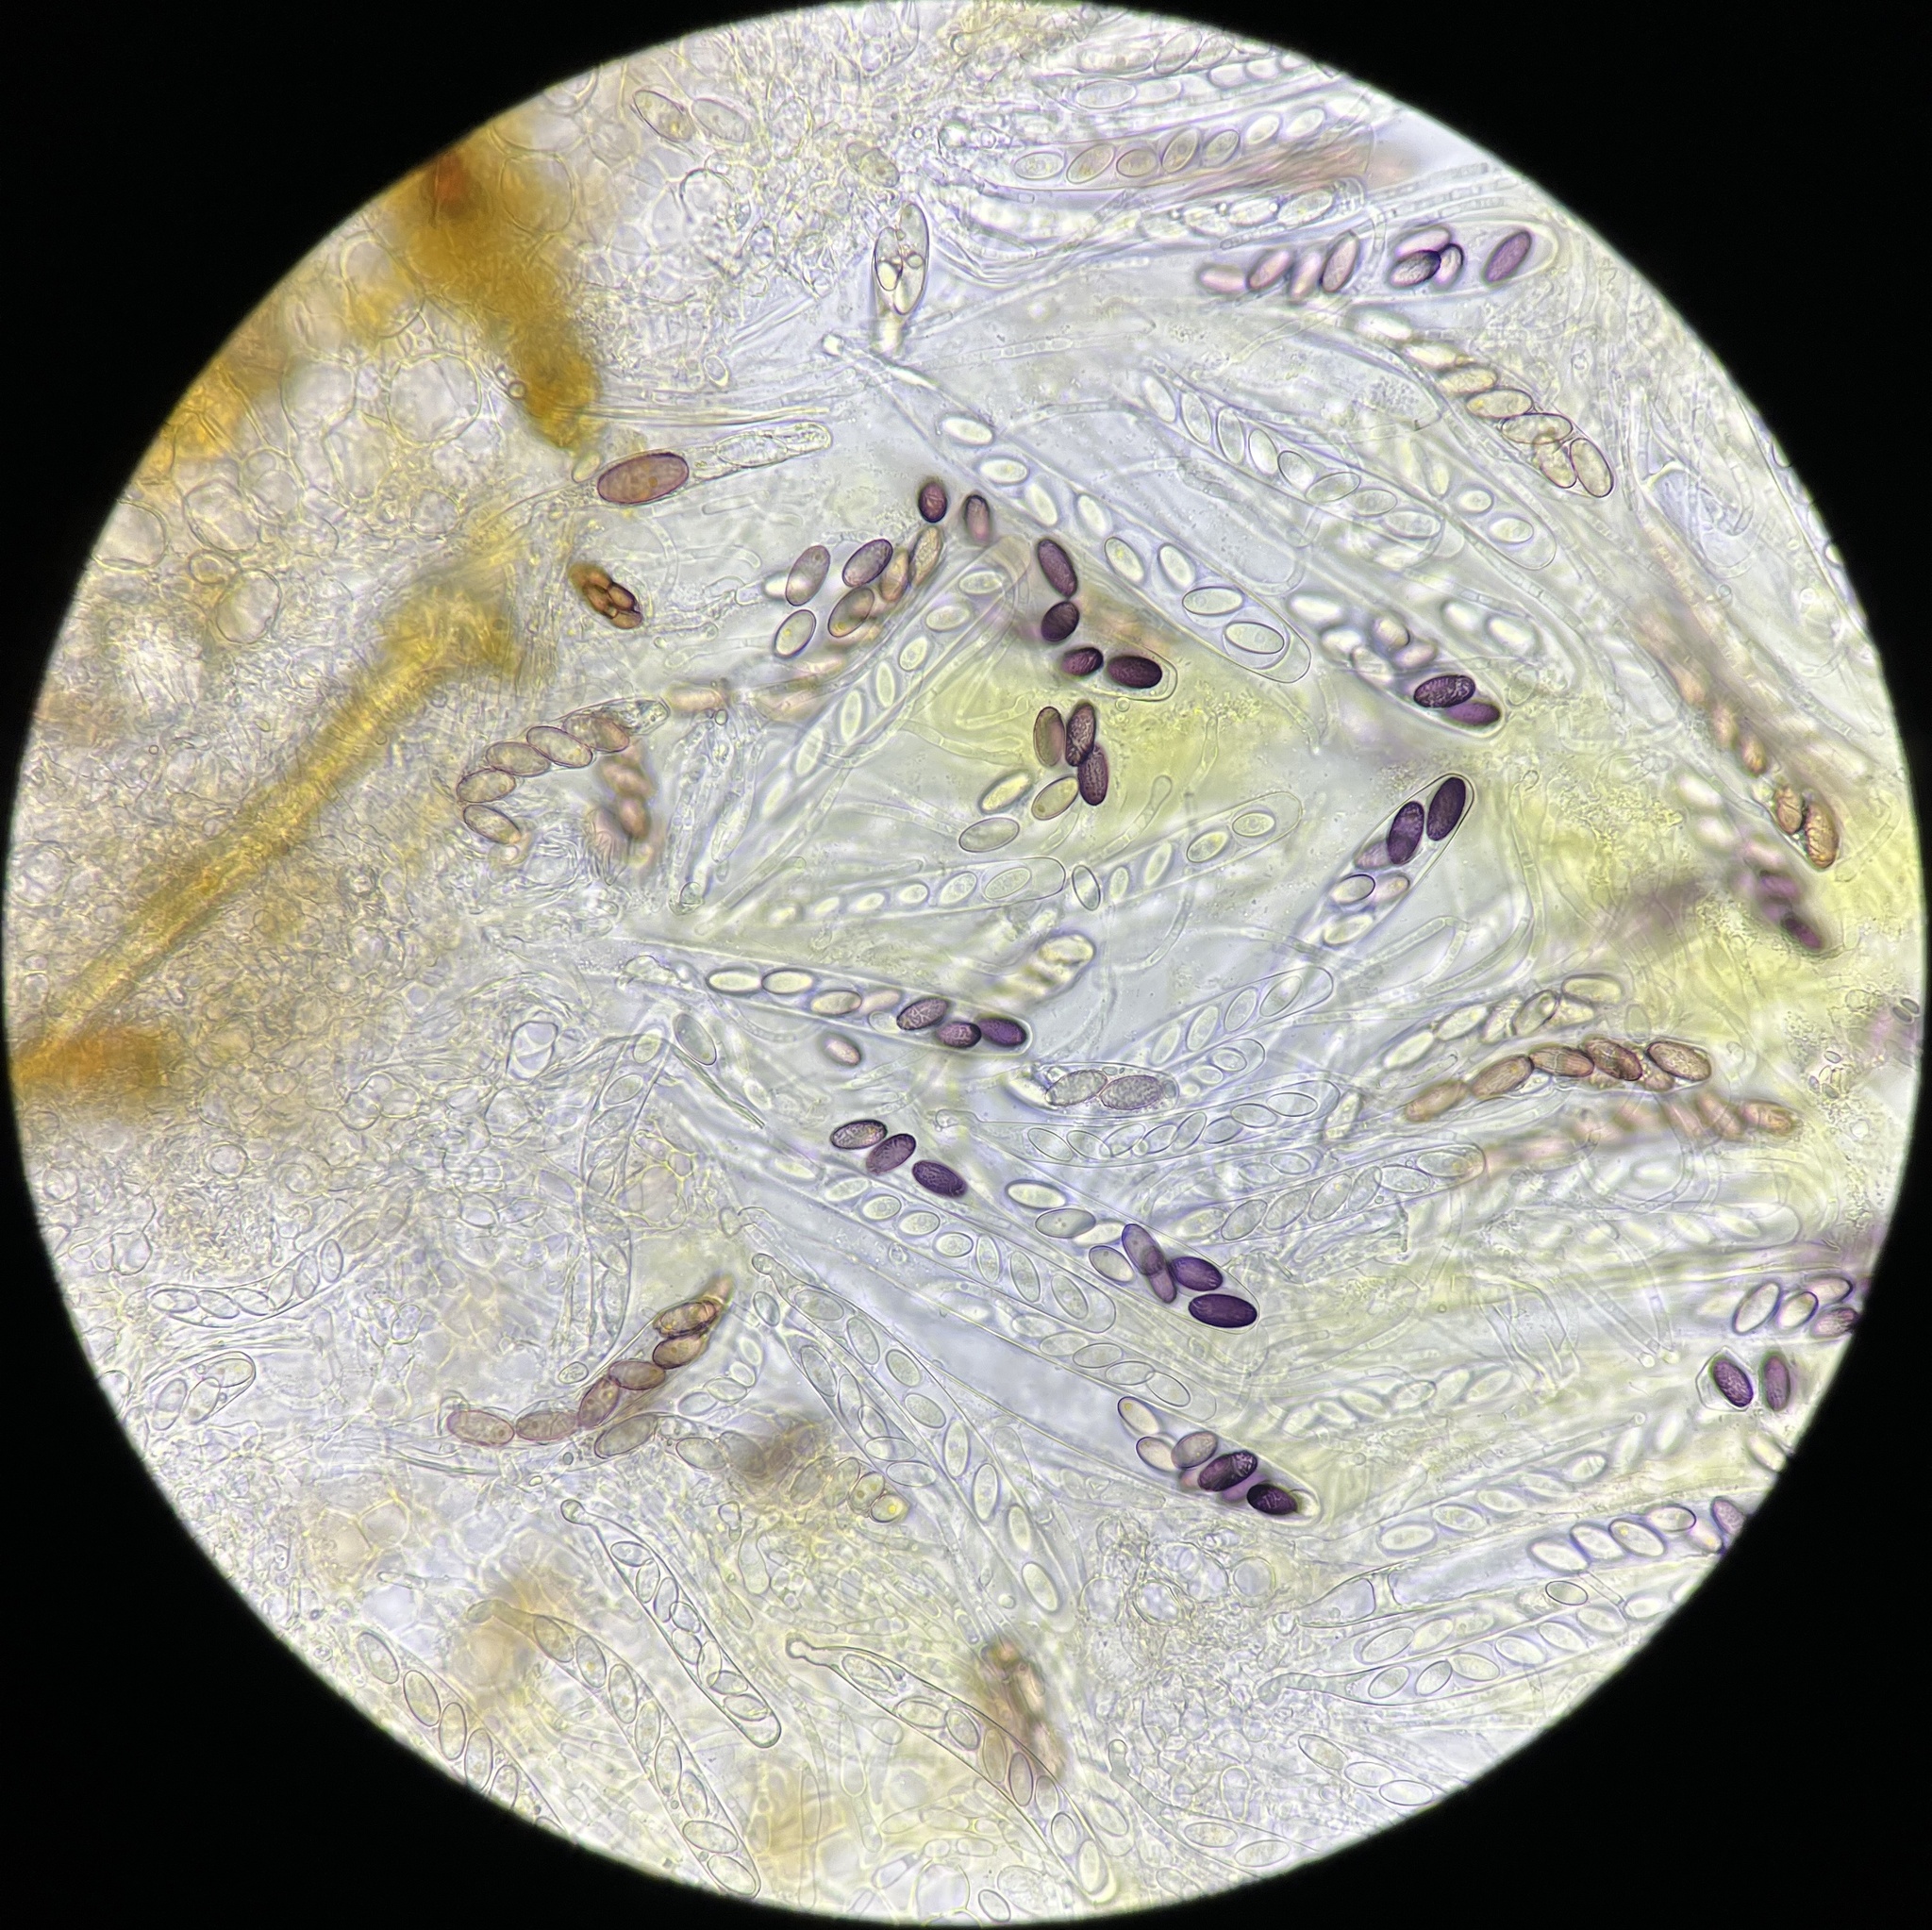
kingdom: Fungi
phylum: Ascomycota
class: Pezizomycetes
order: Pezizales
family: Ascobolaceae
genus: Ascobolus
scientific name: Ascobolus michaudii
